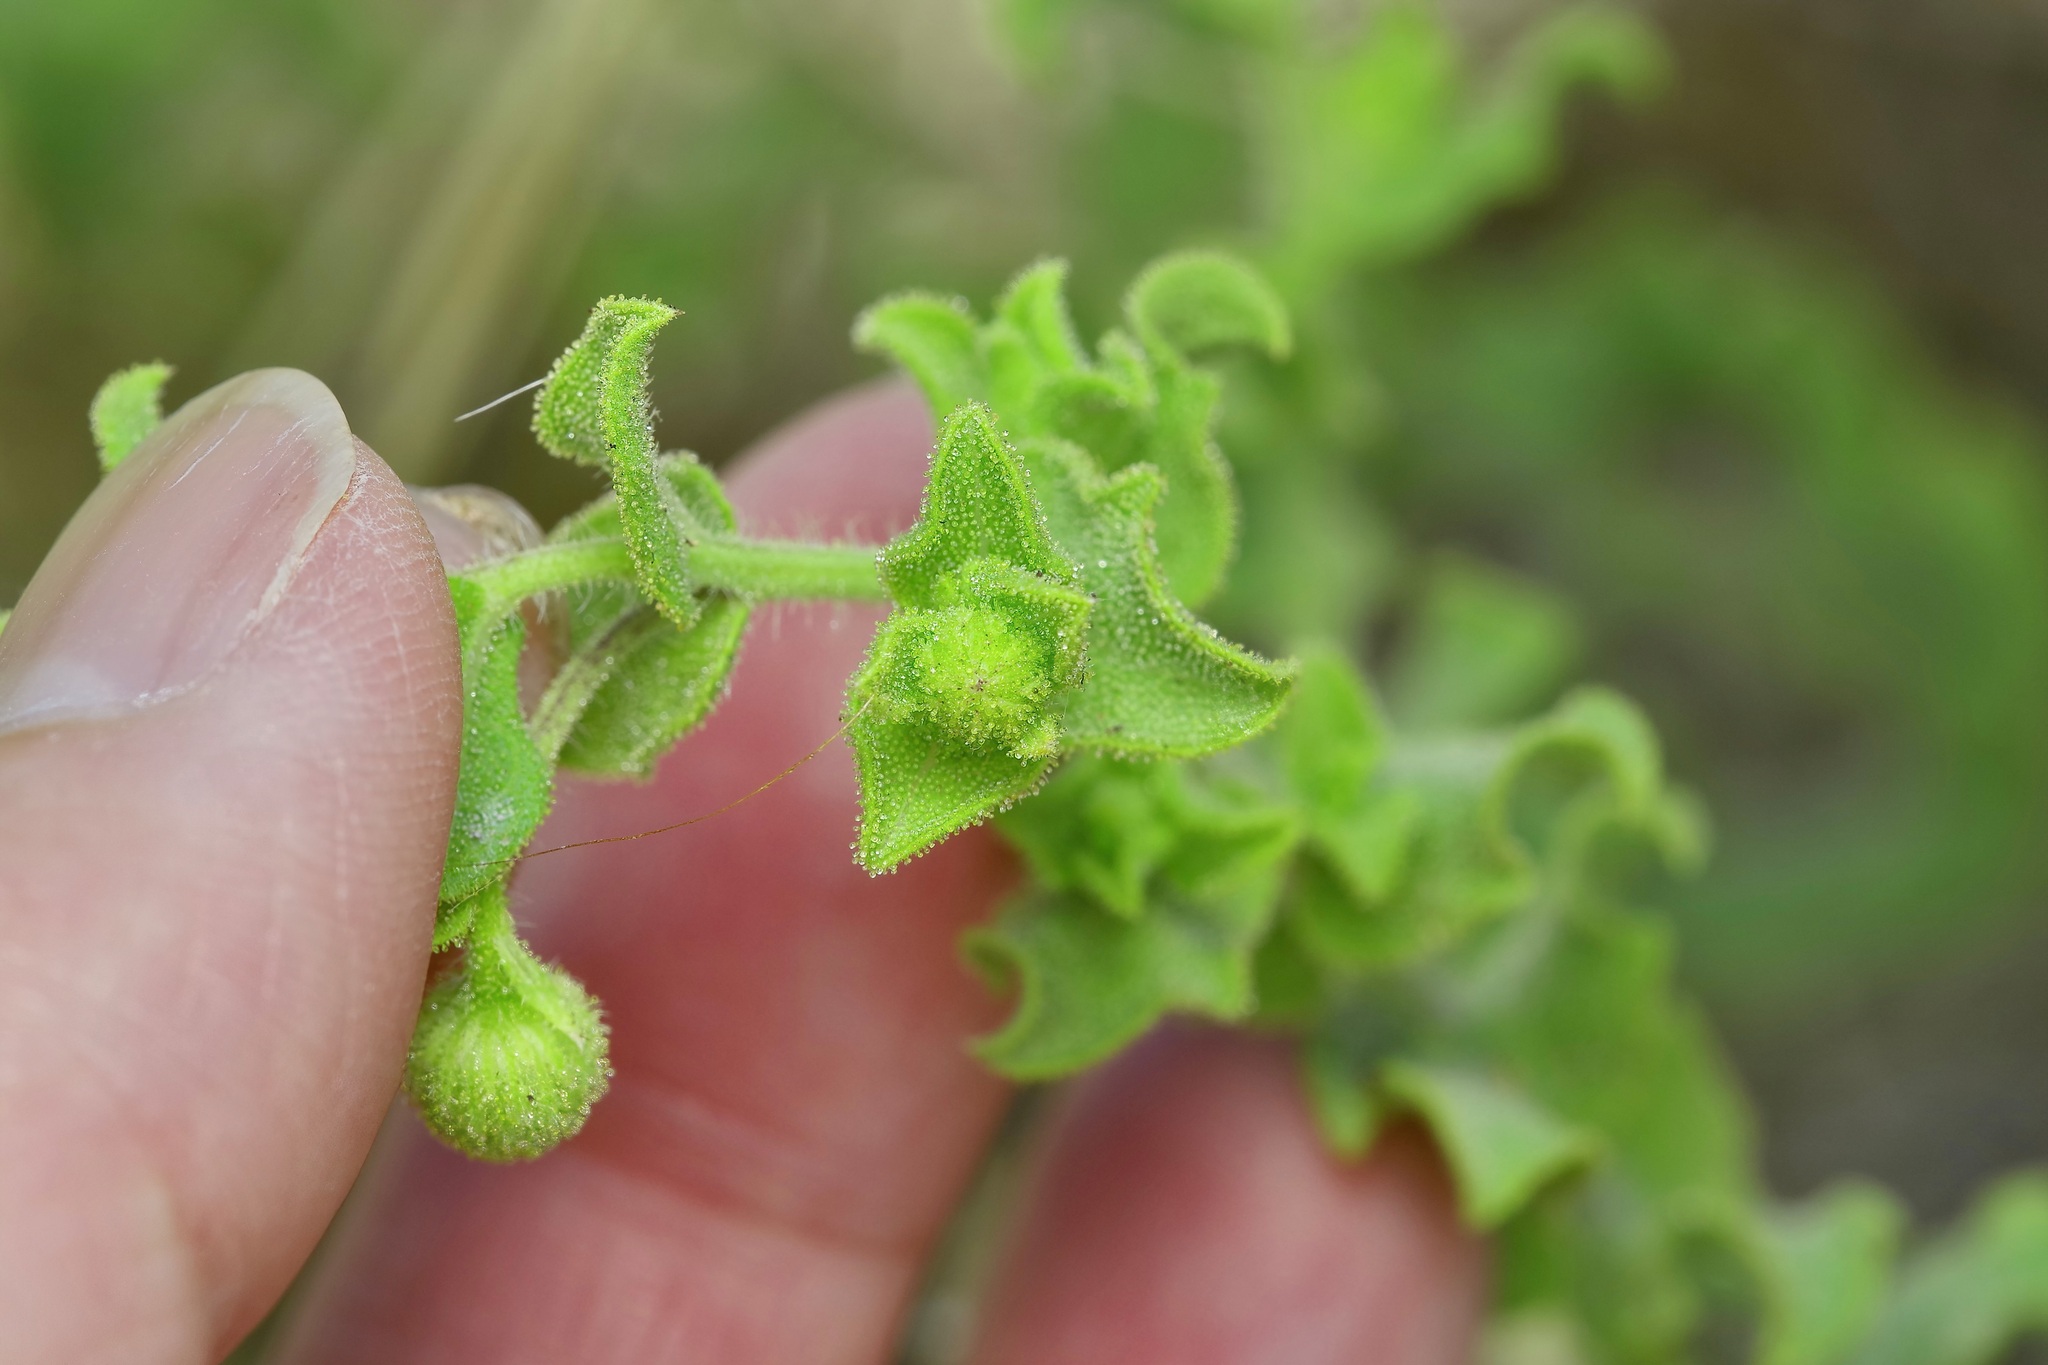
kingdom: Plantae
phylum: Tracheophyta
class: Magnoliopsida
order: Asterales
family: Asteraceae
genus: Heterotheca
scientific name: Heterotheca subaxillaris
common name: Camphorweed
